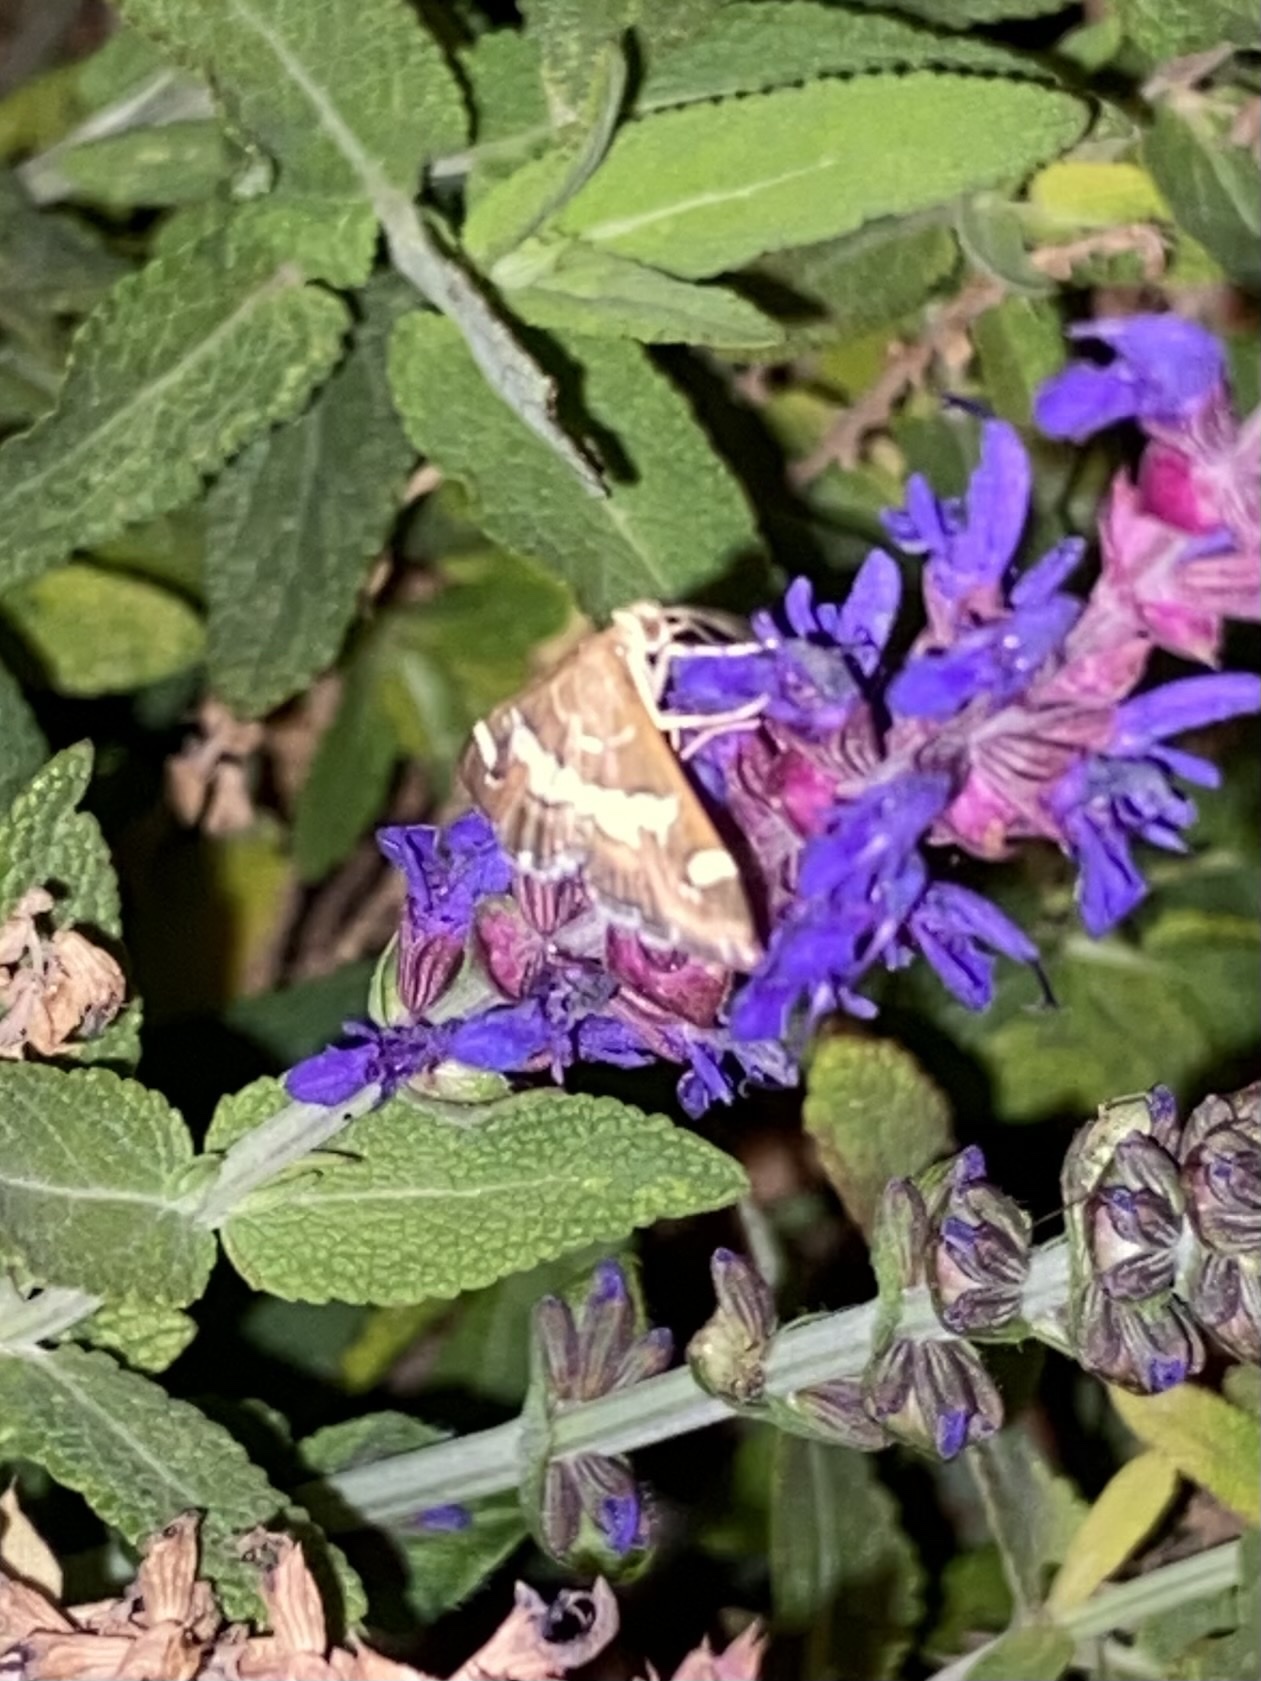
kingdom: Animalia
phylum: Arthropoda
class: Insecta
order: Lepidoptera
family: Crambidae
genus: Spoladea
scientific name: Spoladea recurvalis
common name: Beet webworm moth
